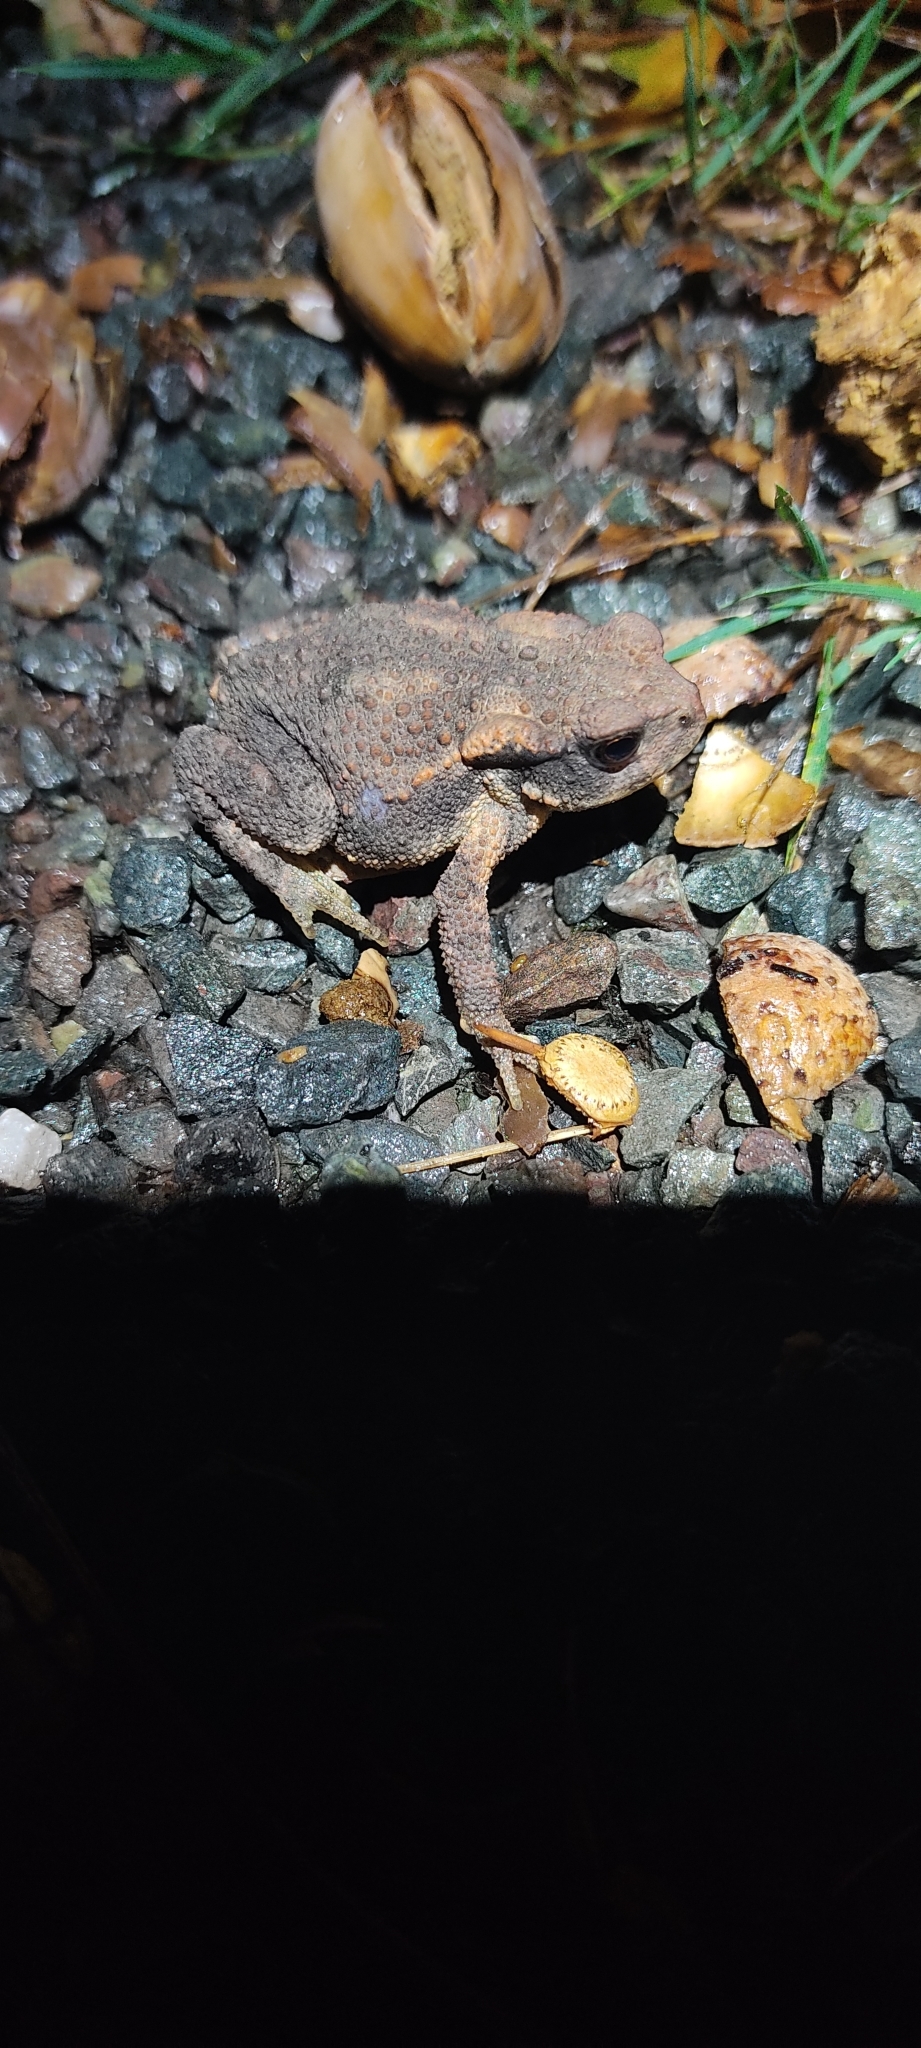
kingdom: Animalia
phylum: Chordata
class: Amphibia
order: Anura
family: Bufonidae
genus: Bufo
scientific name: Bufo spinosus
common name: Western common toad
